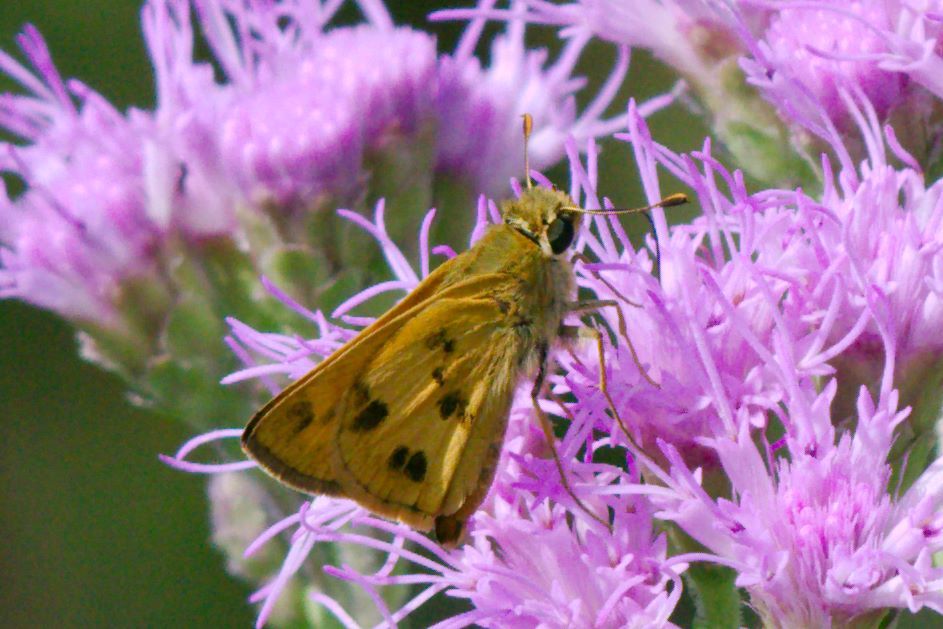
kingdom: Animalia
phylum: Arthropoda
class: Insecta
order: Lepidoptera
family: Hesperiidae
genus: Polites
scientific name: Polites vibex
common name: Whirlabout
